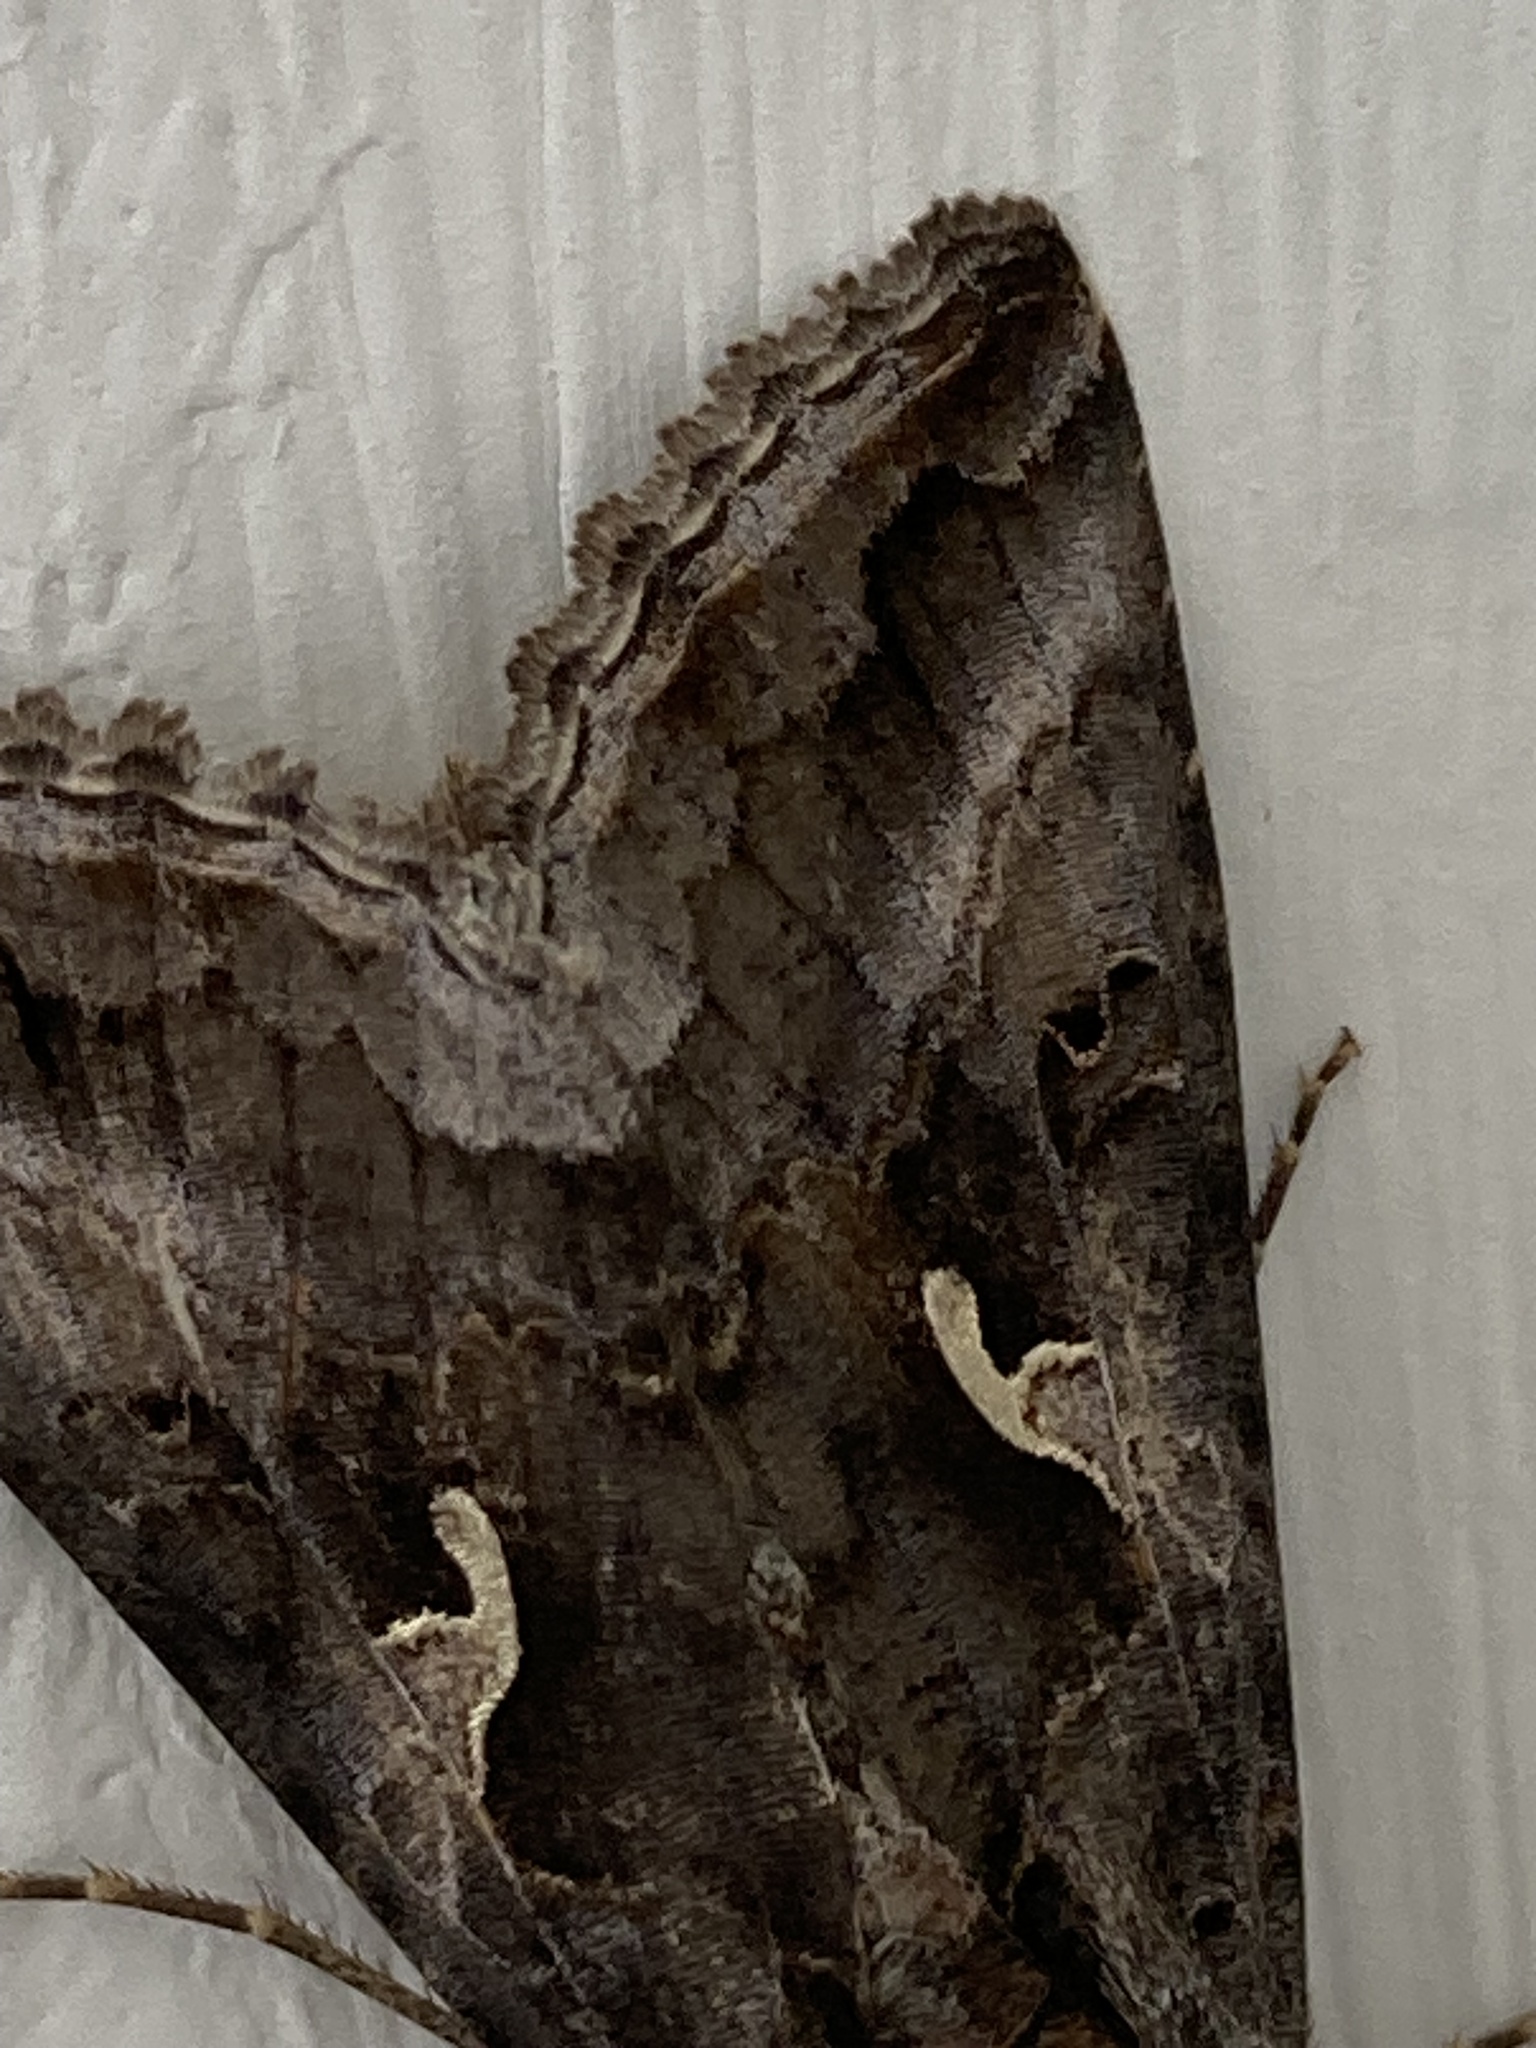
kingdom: Animalia
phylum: Arthropoda
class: Insecta
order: Lepidoptera
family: Noctuidae
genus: Autographa
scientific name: Autographa gamma
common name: Silver y
